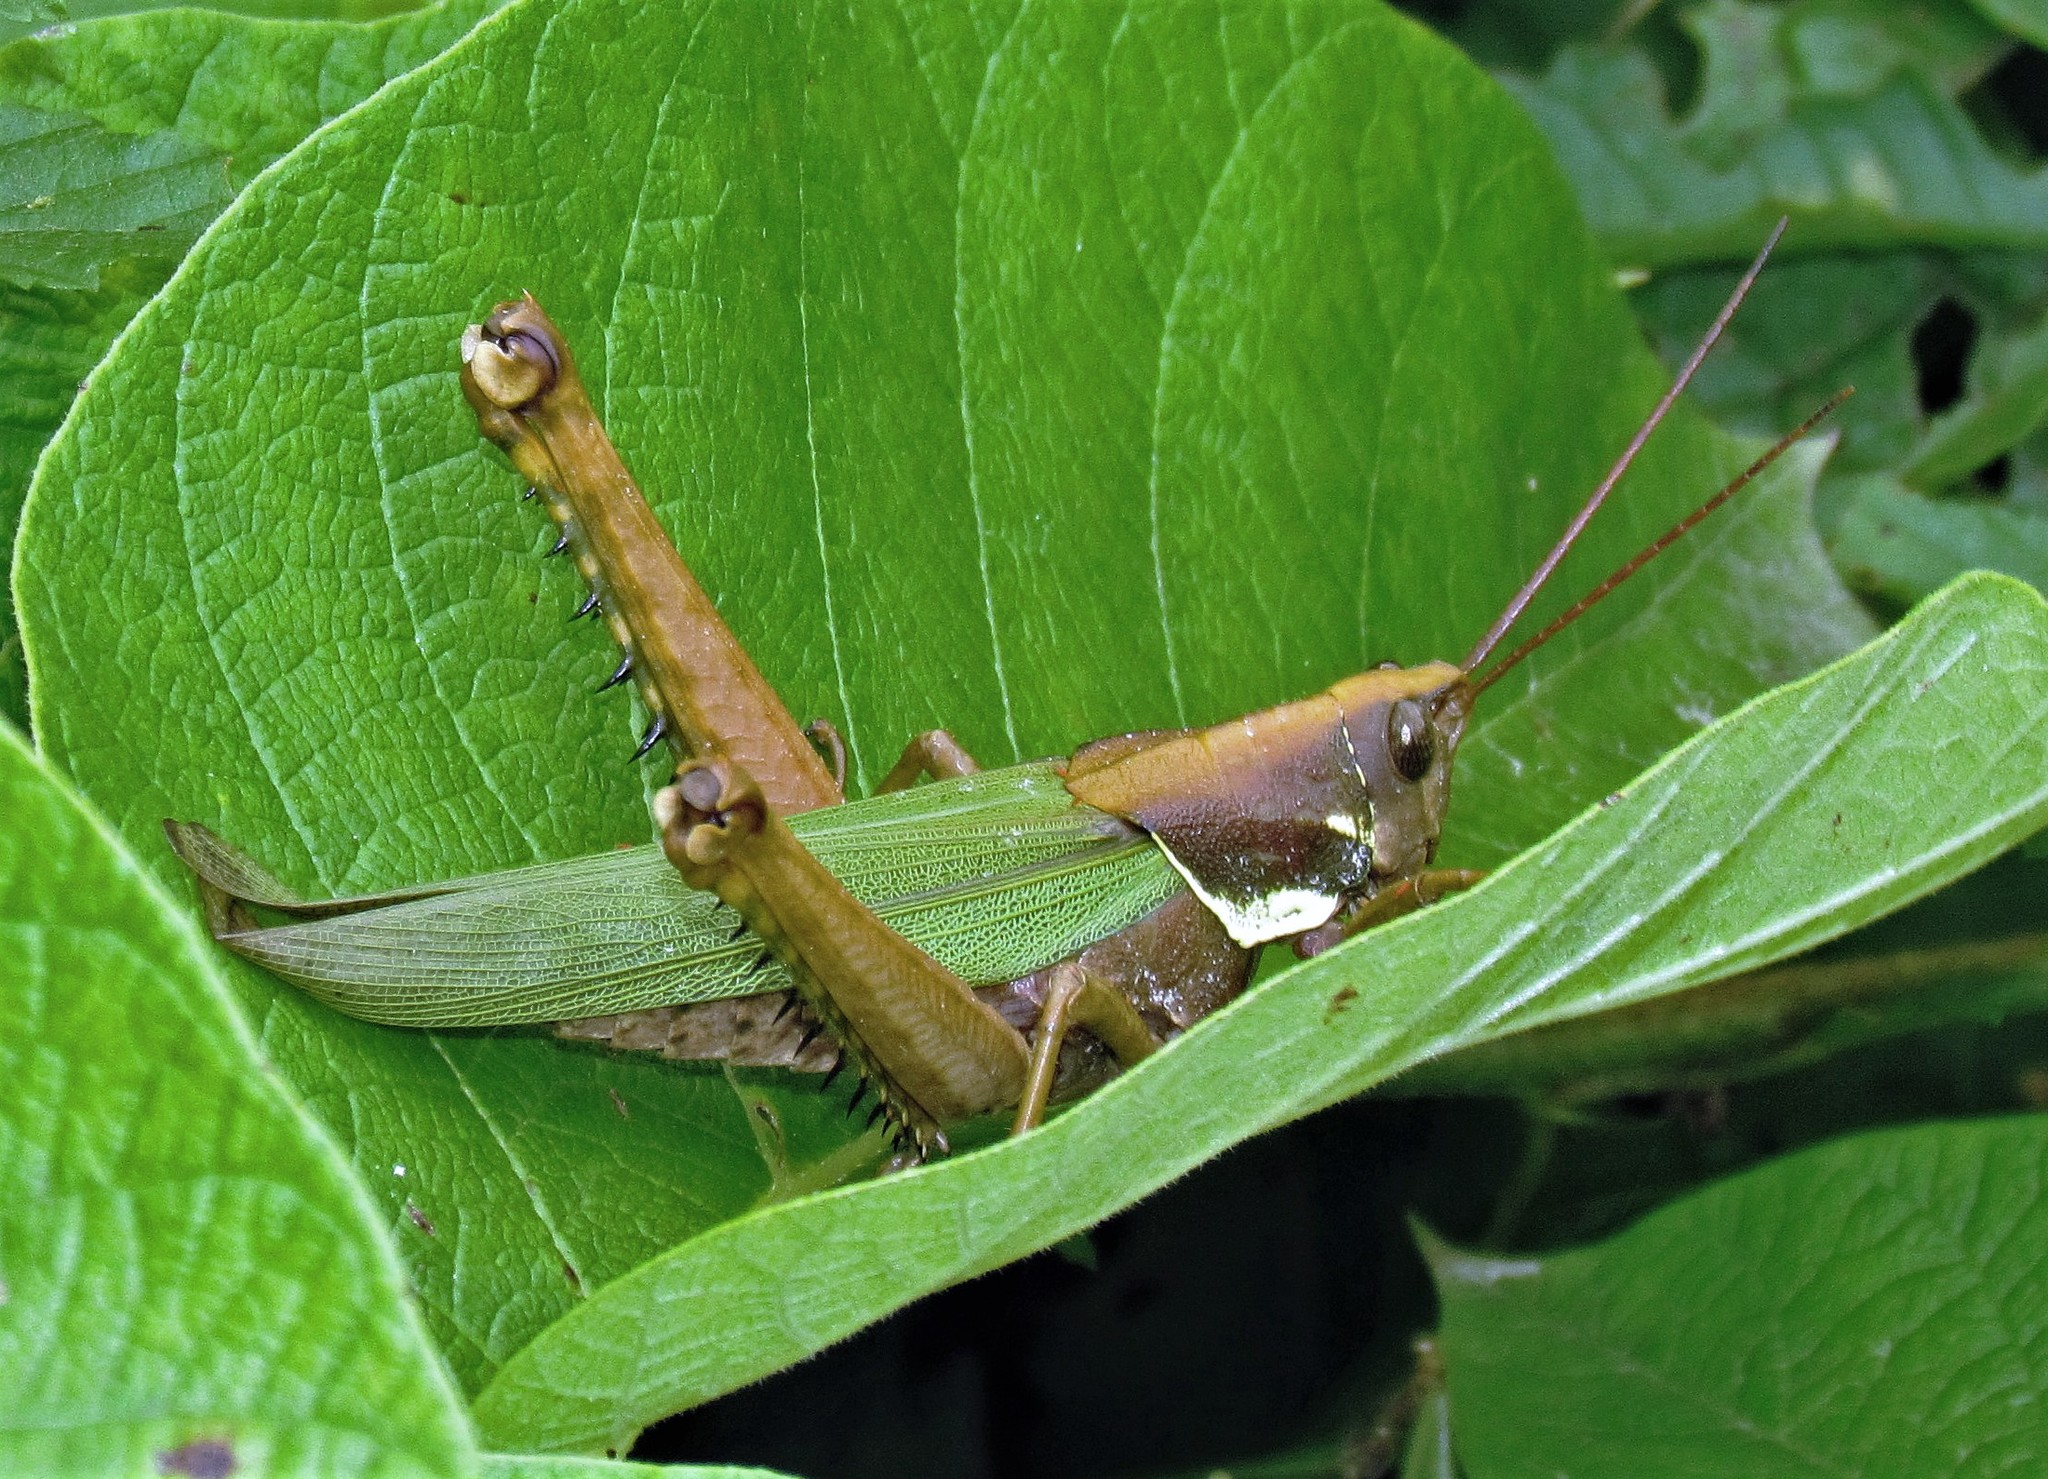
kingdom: Animalia
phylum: Arthropoda
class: Insecta
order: Orthoptera
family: Romaleidae
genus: Coryacris
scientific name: Coryacris angustipennis
